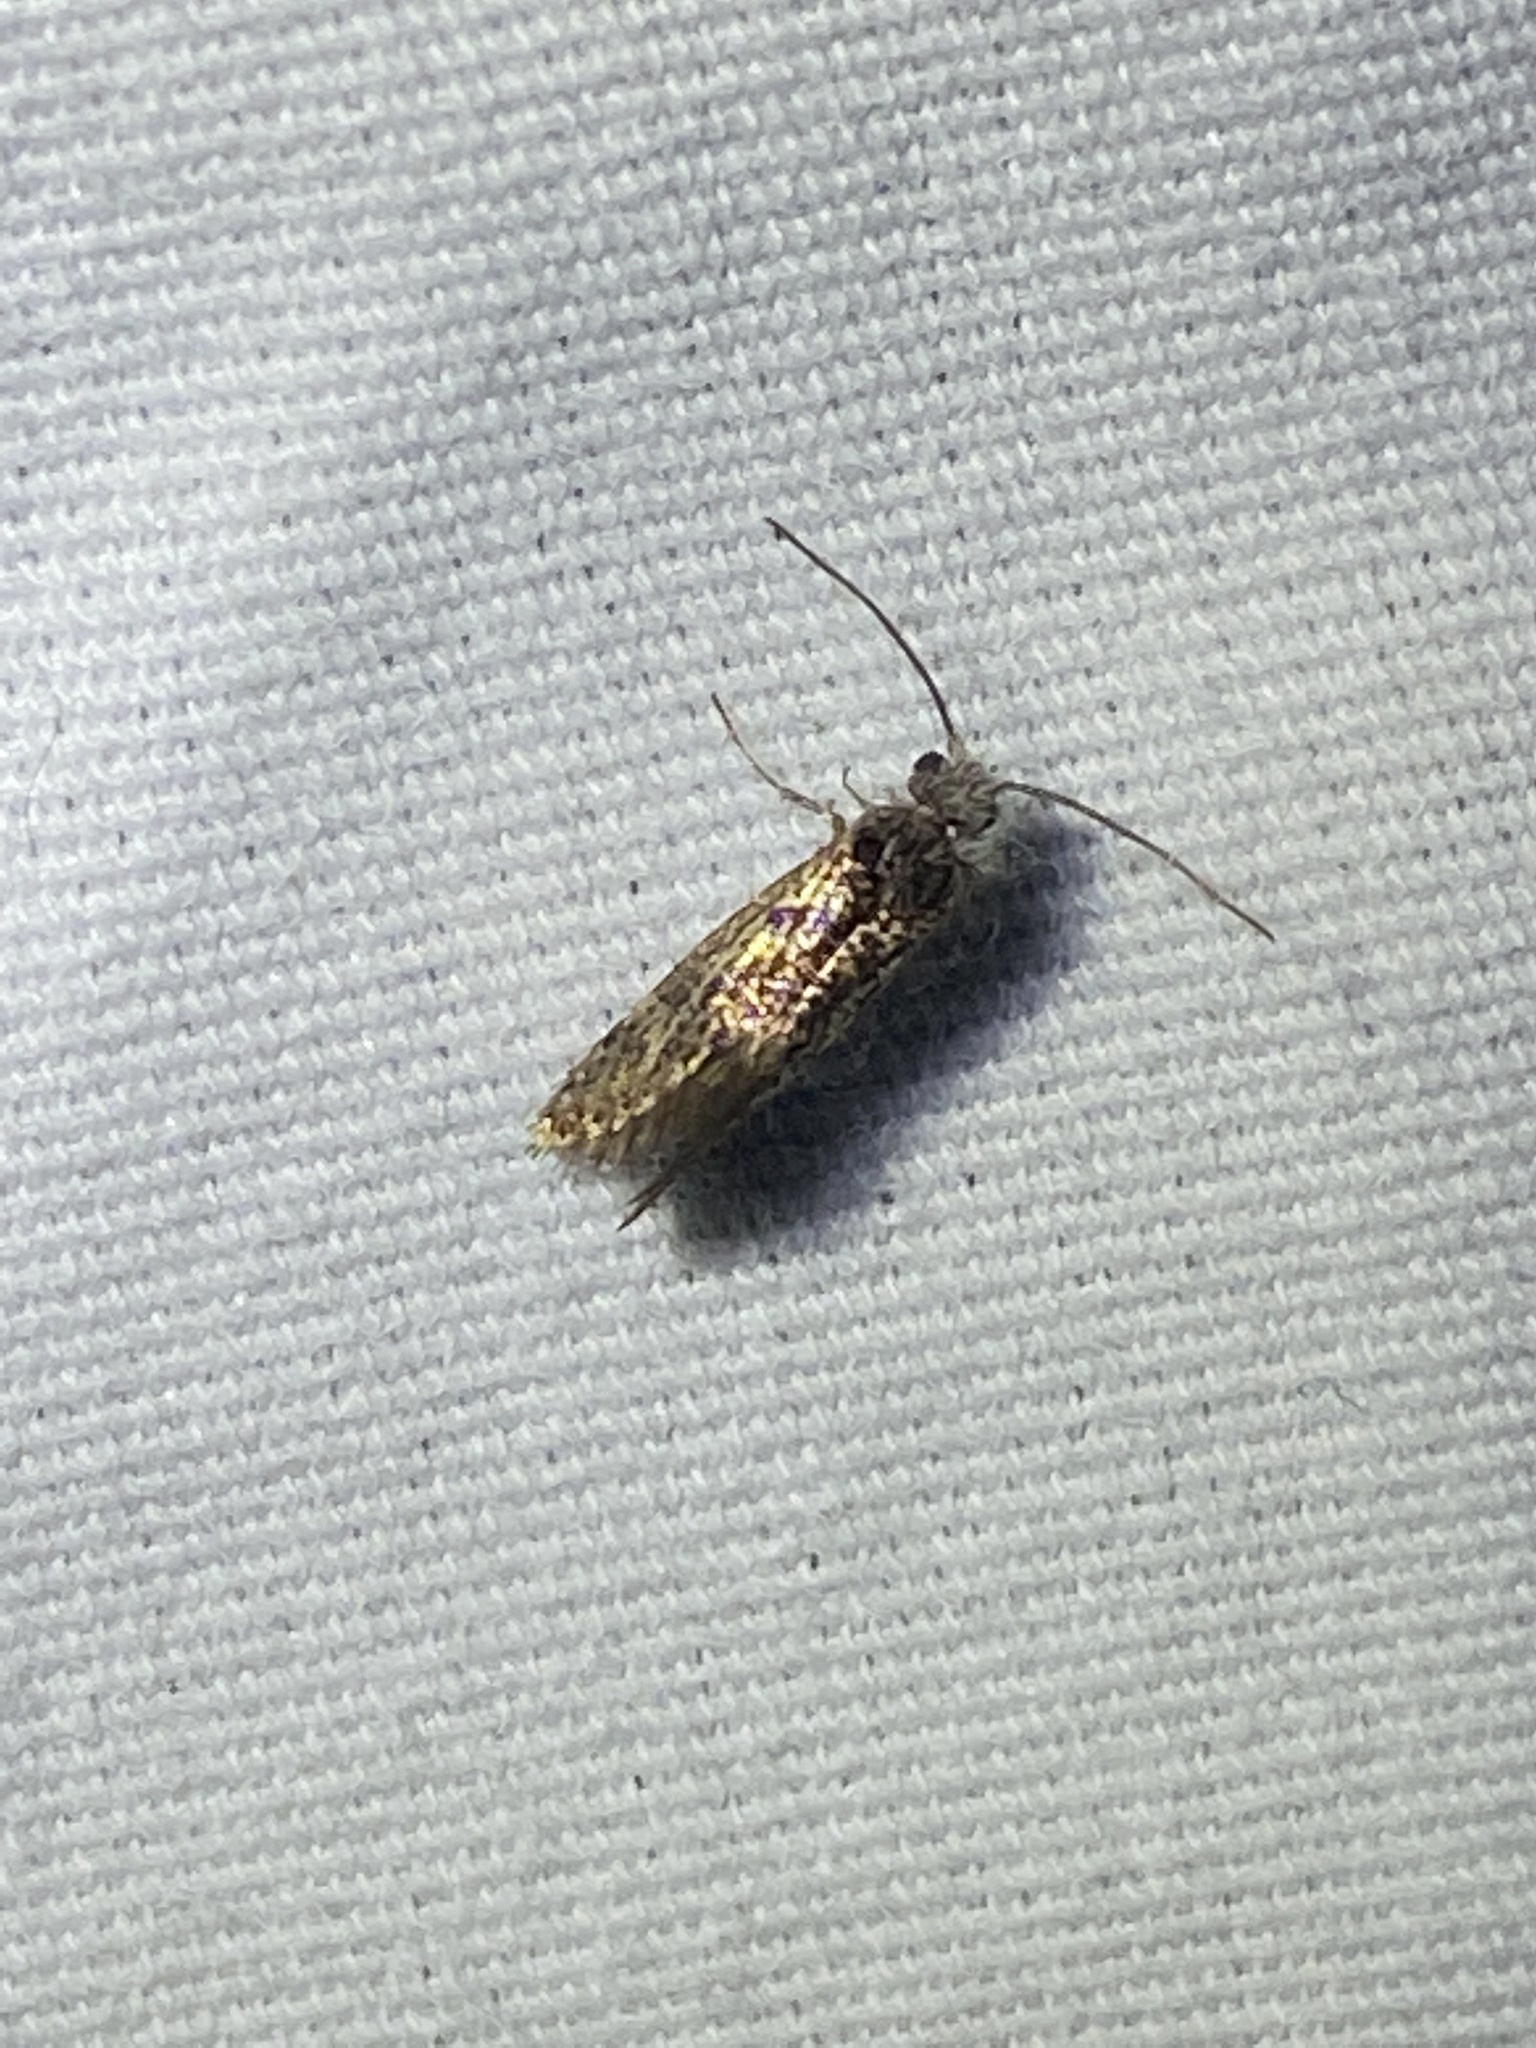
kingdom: Animalia
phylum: Arthropoda
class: Insecta
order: Lepidoptera
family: Eriocraniidae
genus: Dyseriocrania
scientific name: Dyseriocrania griseocapitella
